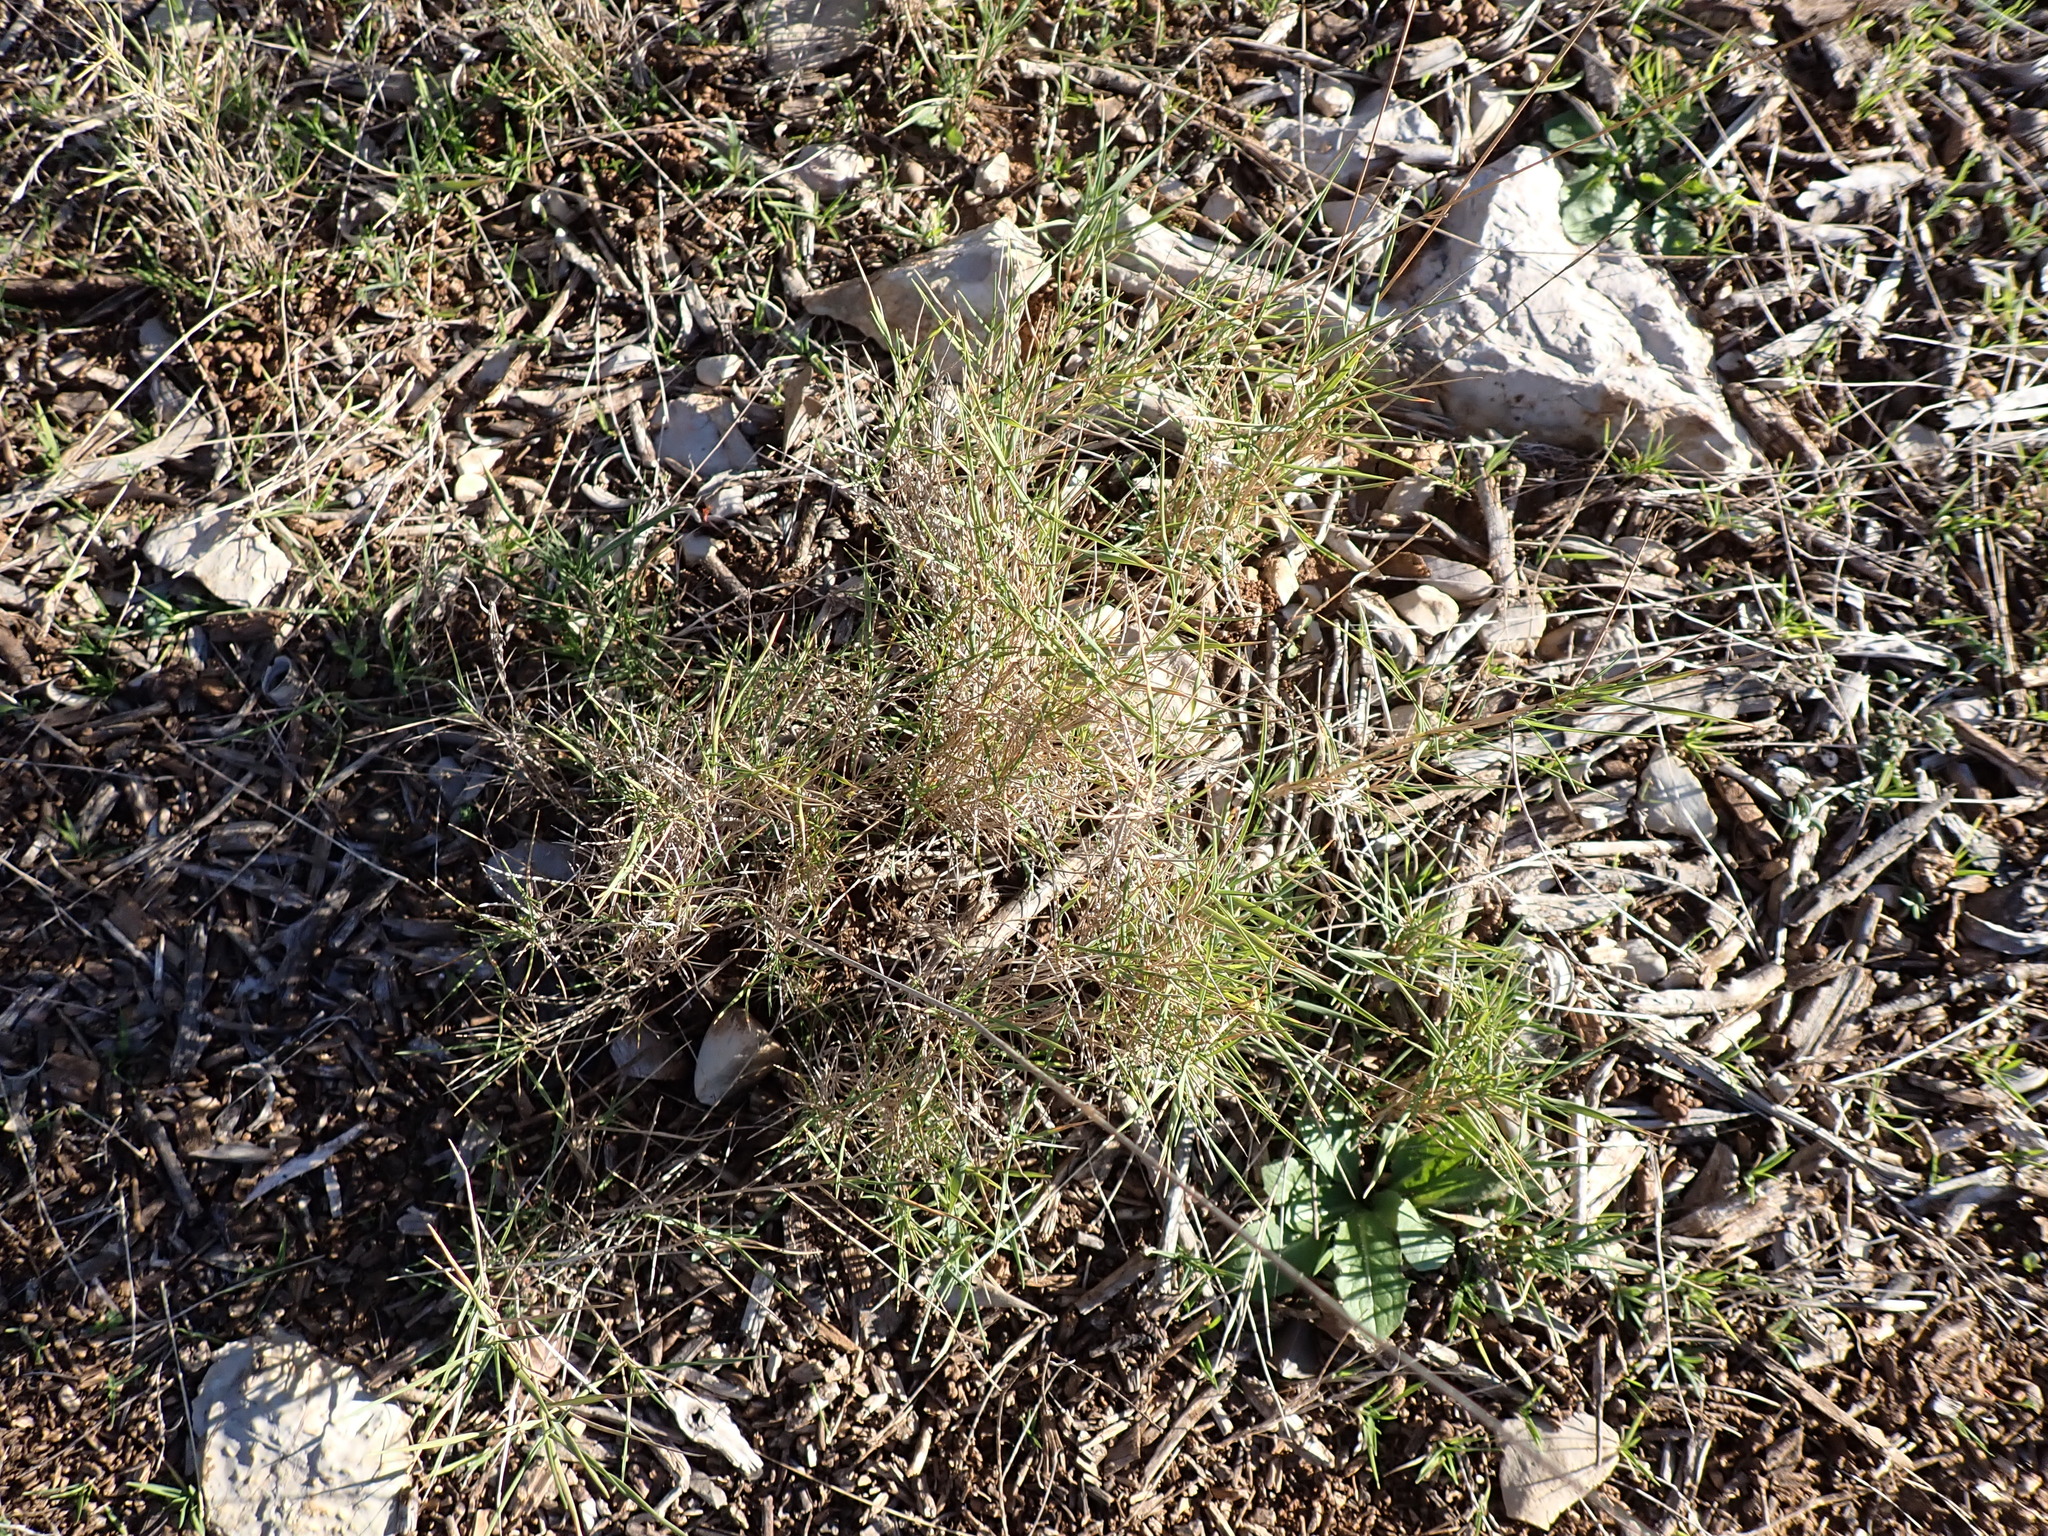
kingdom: Plantae
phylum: Tracheophyta
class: Liliopsida
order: Poales
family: Poaceae
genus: Brachypodium
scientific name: Brachypodium retusum
